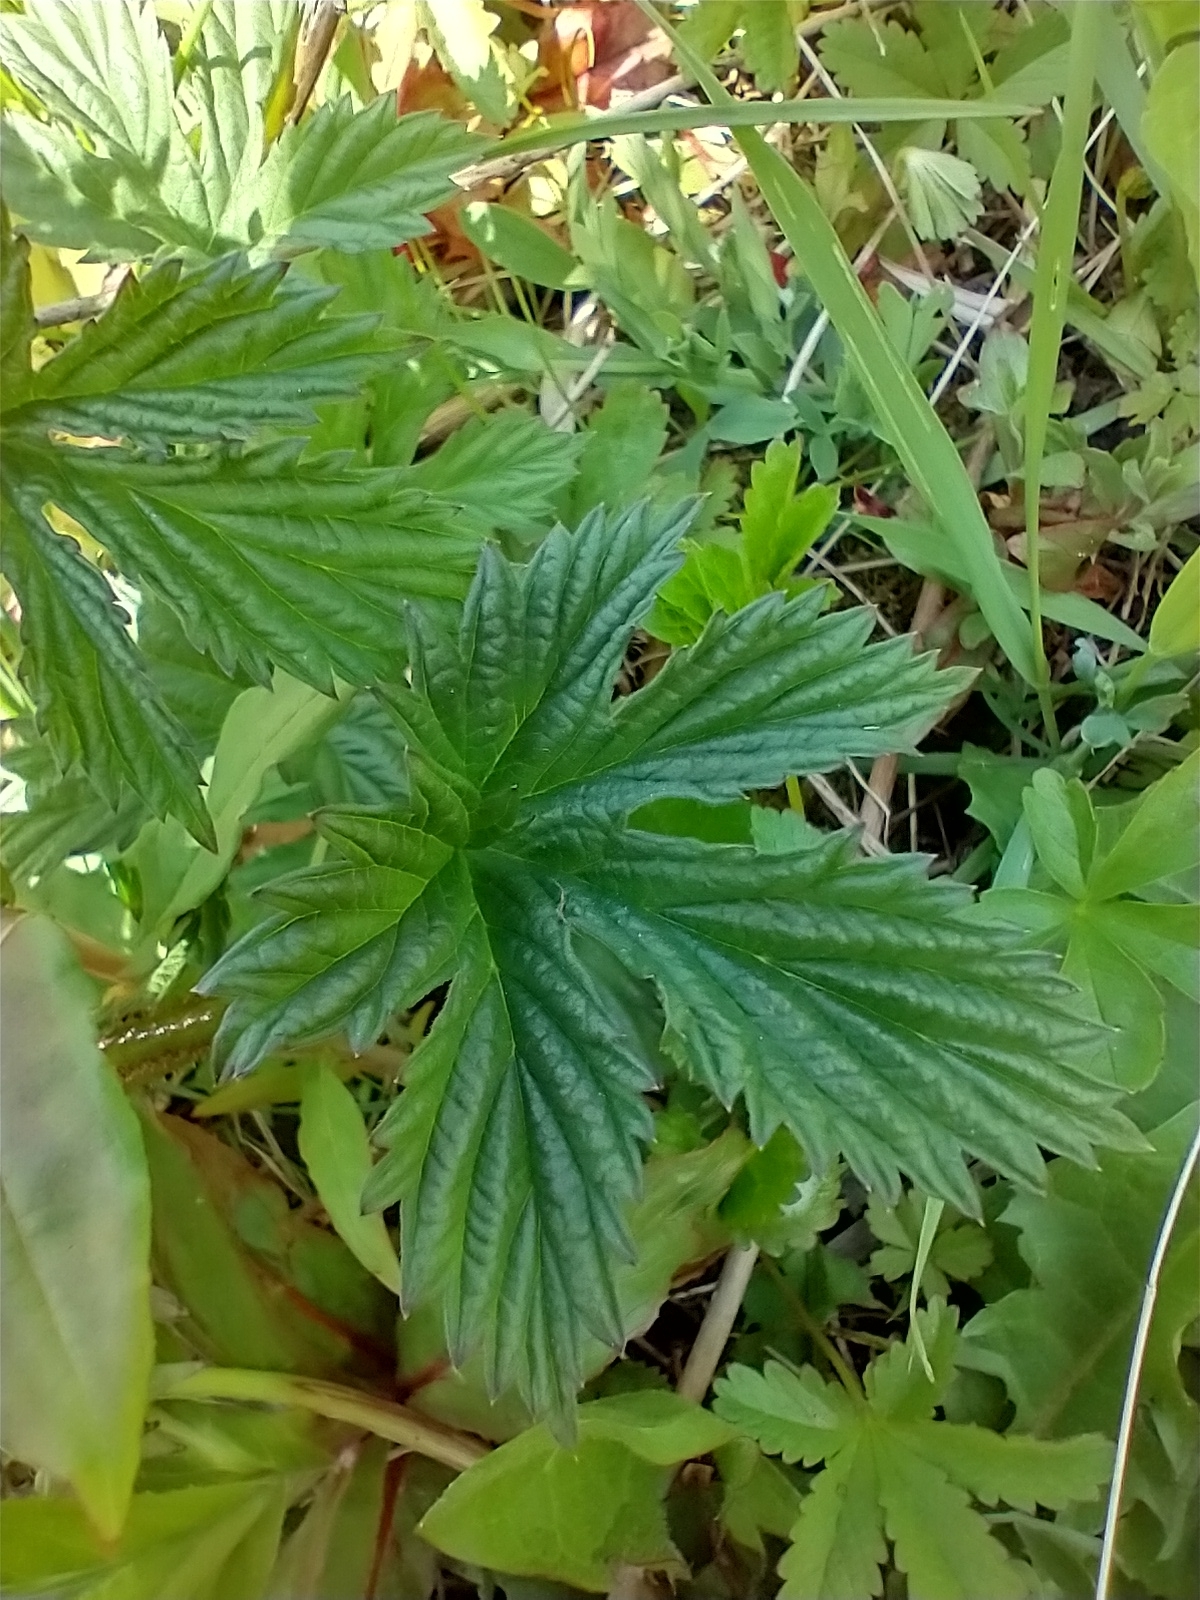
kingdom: Plantae
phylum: Tracheophyta
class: Magnoliopsida
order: Rosales
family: Cannabaceae
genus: Humulus
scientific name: Humulus lupulus
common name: Hop
